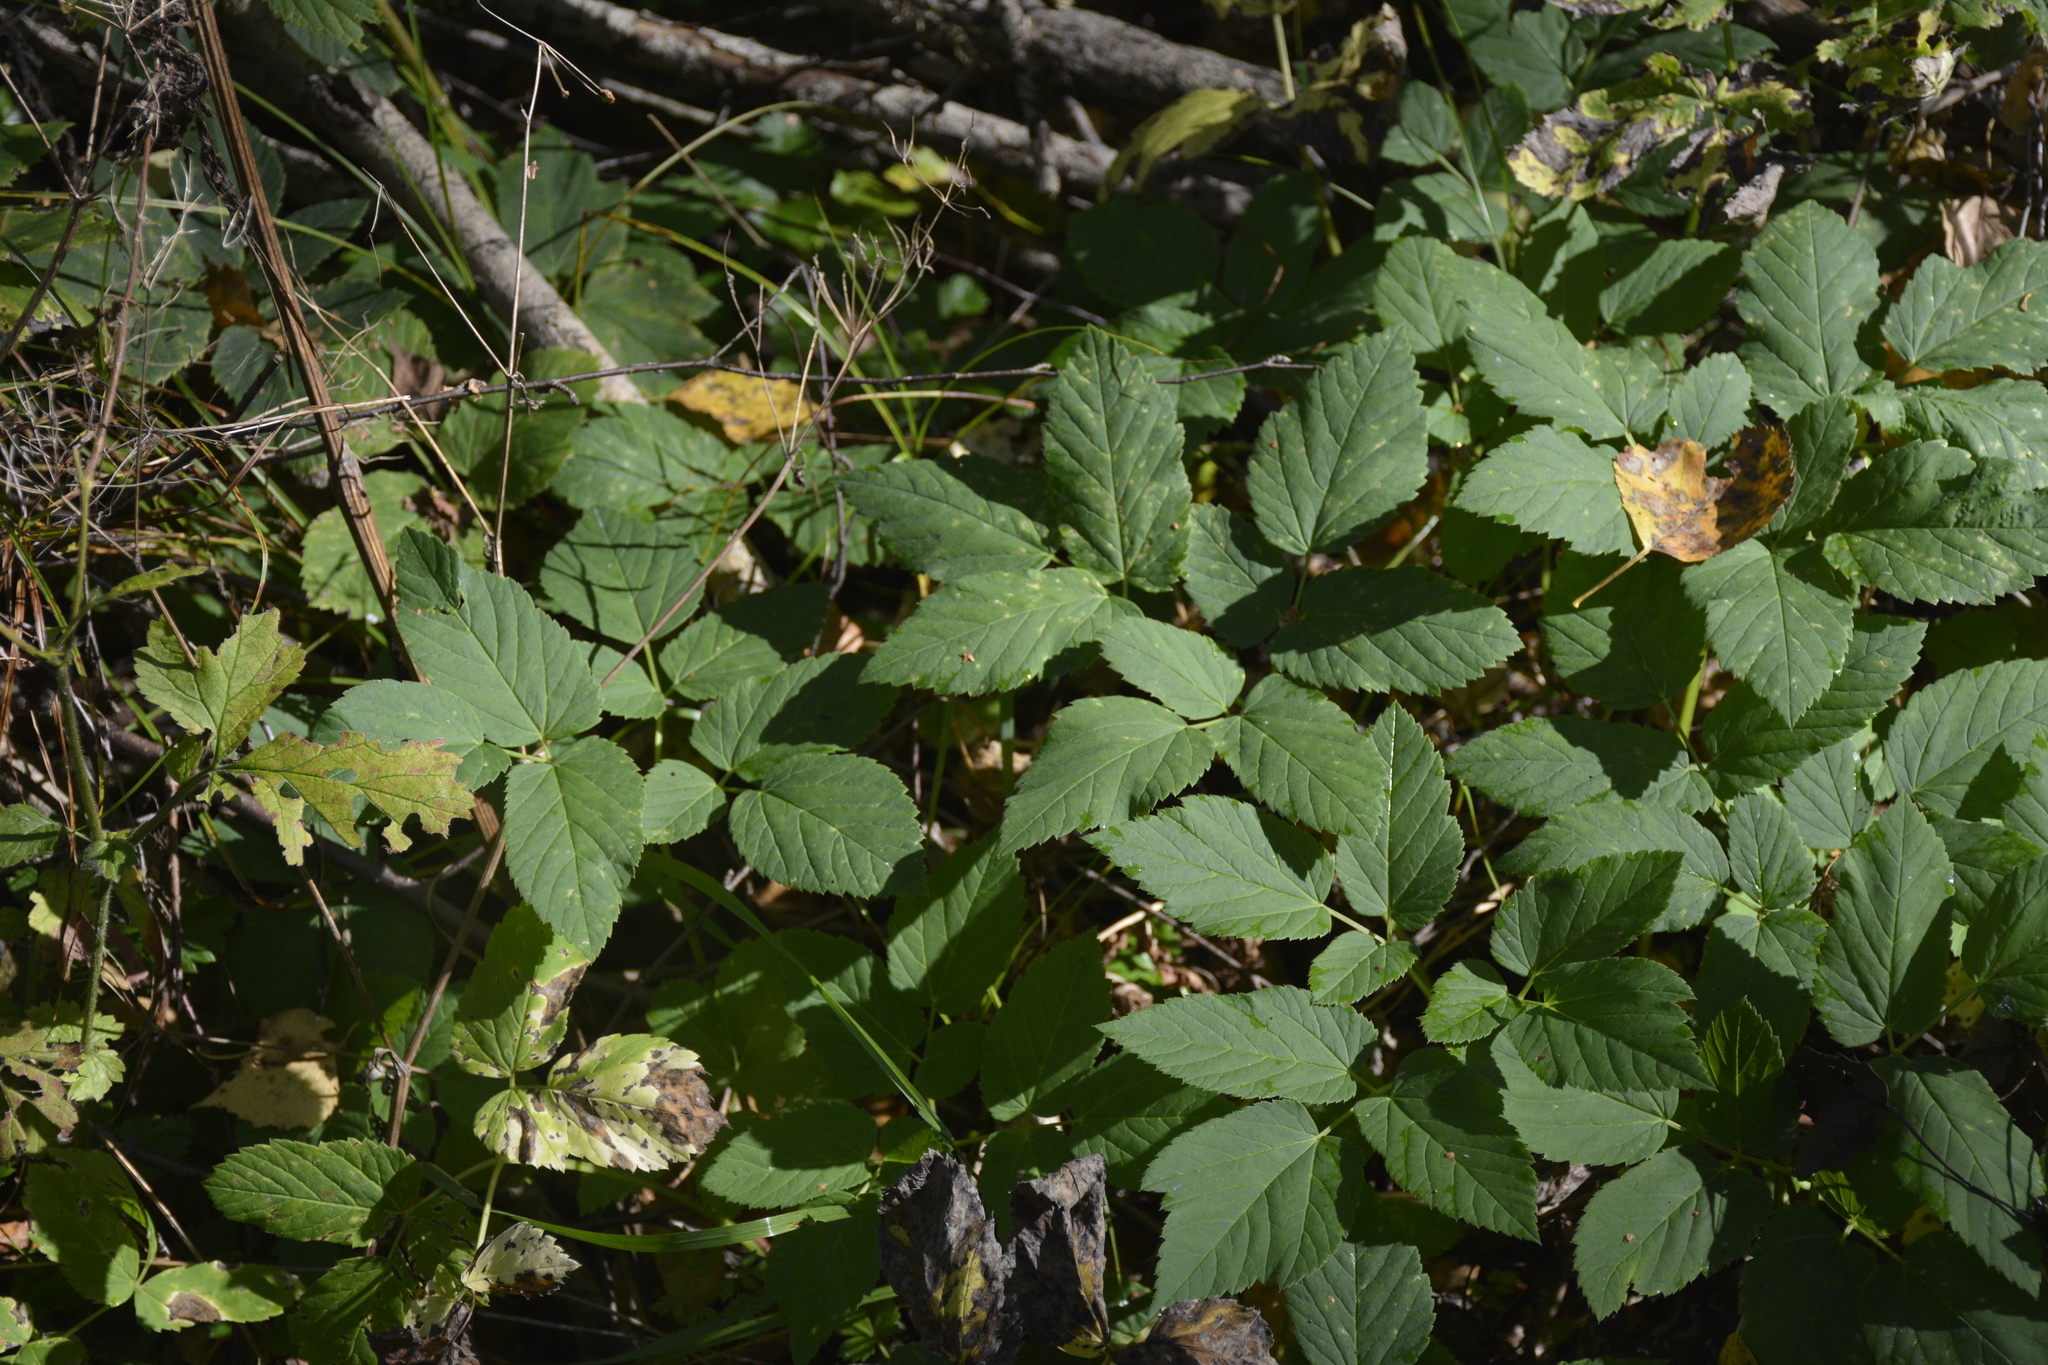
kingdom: Plantae
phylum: Tracheophyta
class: Magnoliopsida
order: Apiales
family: Apiaceae
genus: Aegopodium
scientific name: Aegopodium podagraria
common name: Ground-elder
